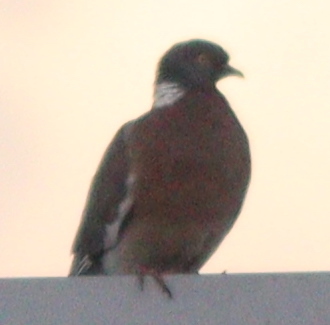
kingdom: Animalia
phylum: Chordata
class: Aves
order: Columbiformes
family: Columbidae
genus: Columba
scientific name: Columba palumbus
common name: Common wood pigeon
